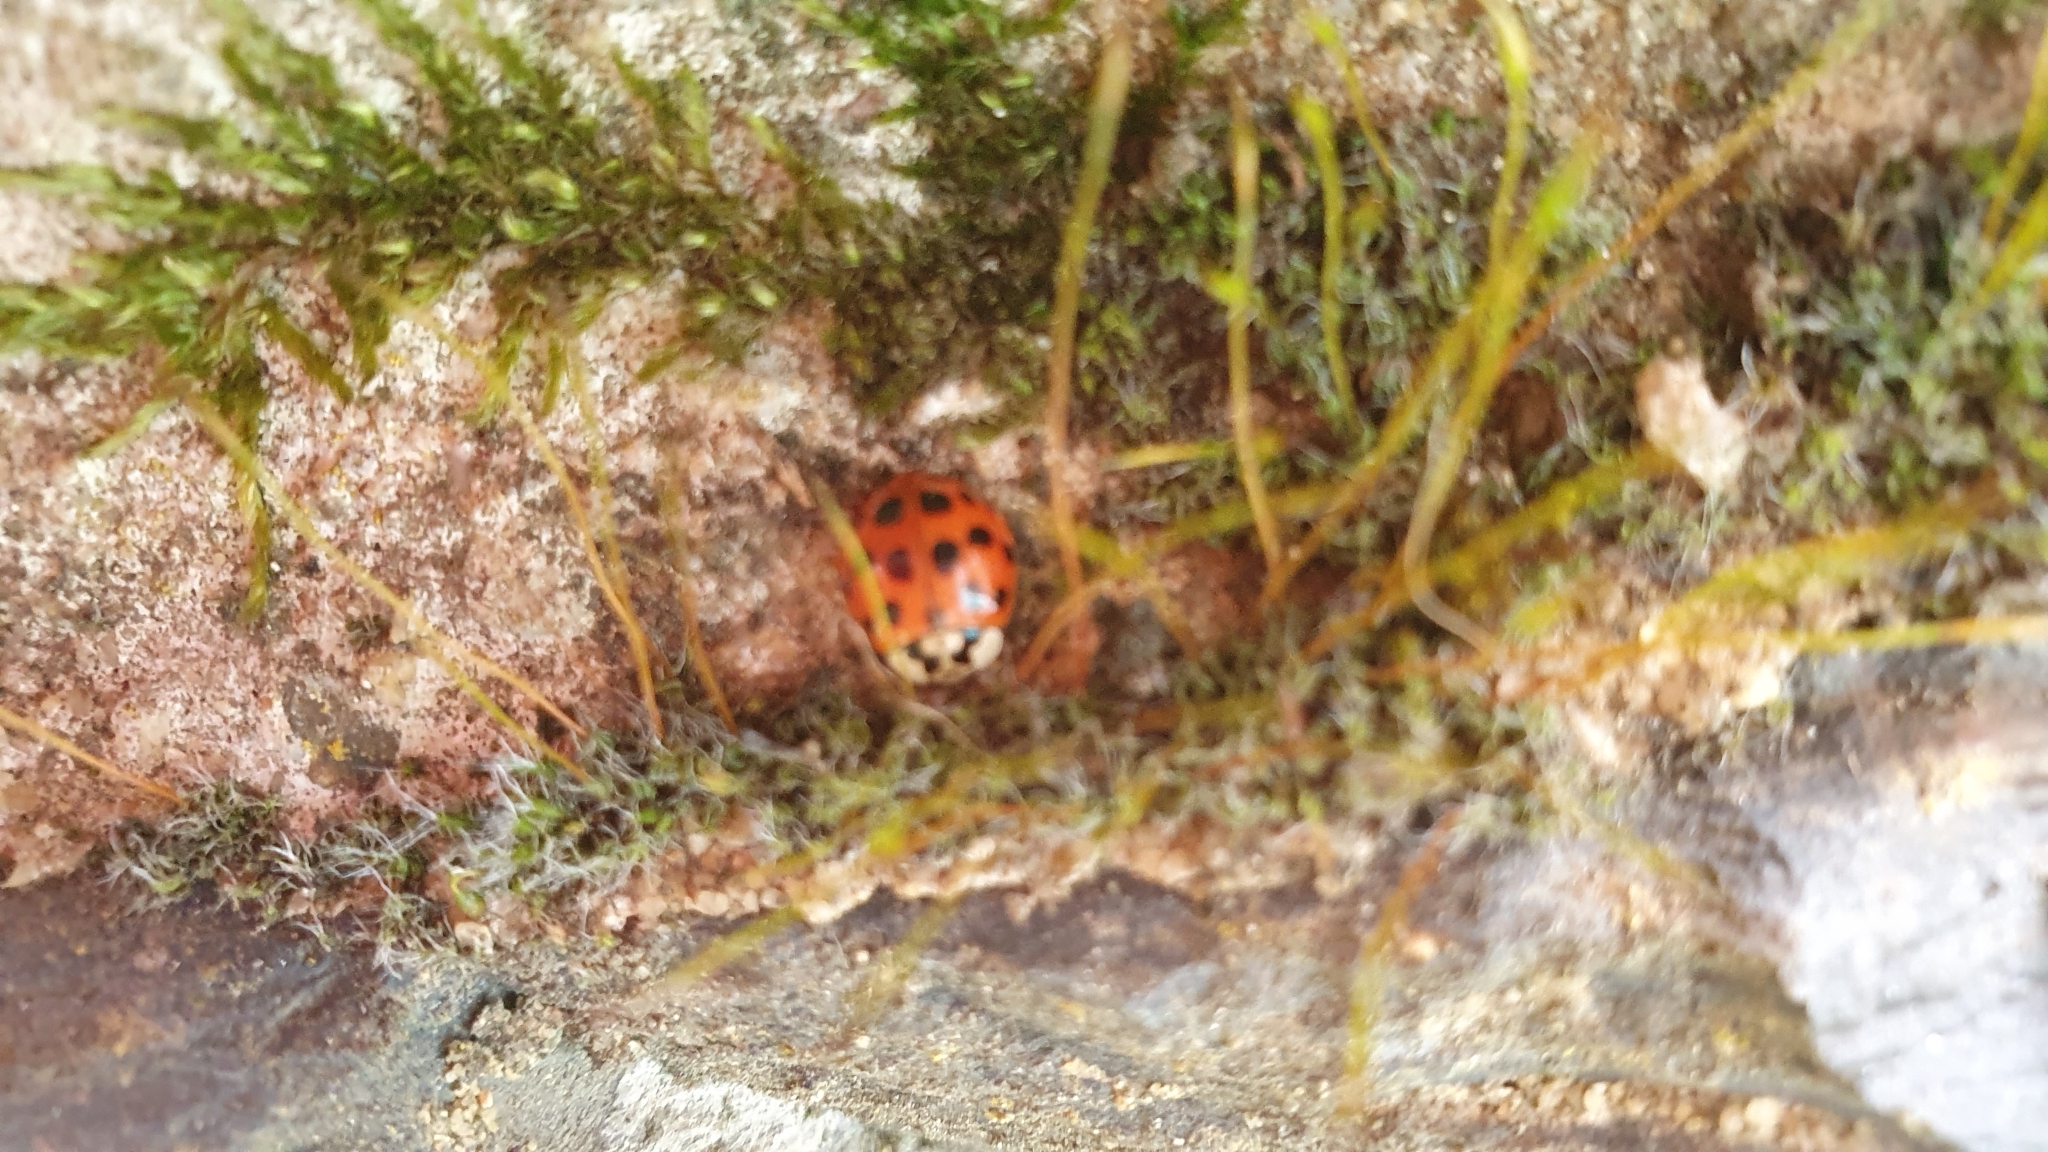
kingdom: Animalia
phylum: Arthropoda
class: Insecta
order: Coleoptera
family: Coccinellidae
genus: Harmonia
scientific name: Harmonia axyridis
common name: Harlequin ladybird
